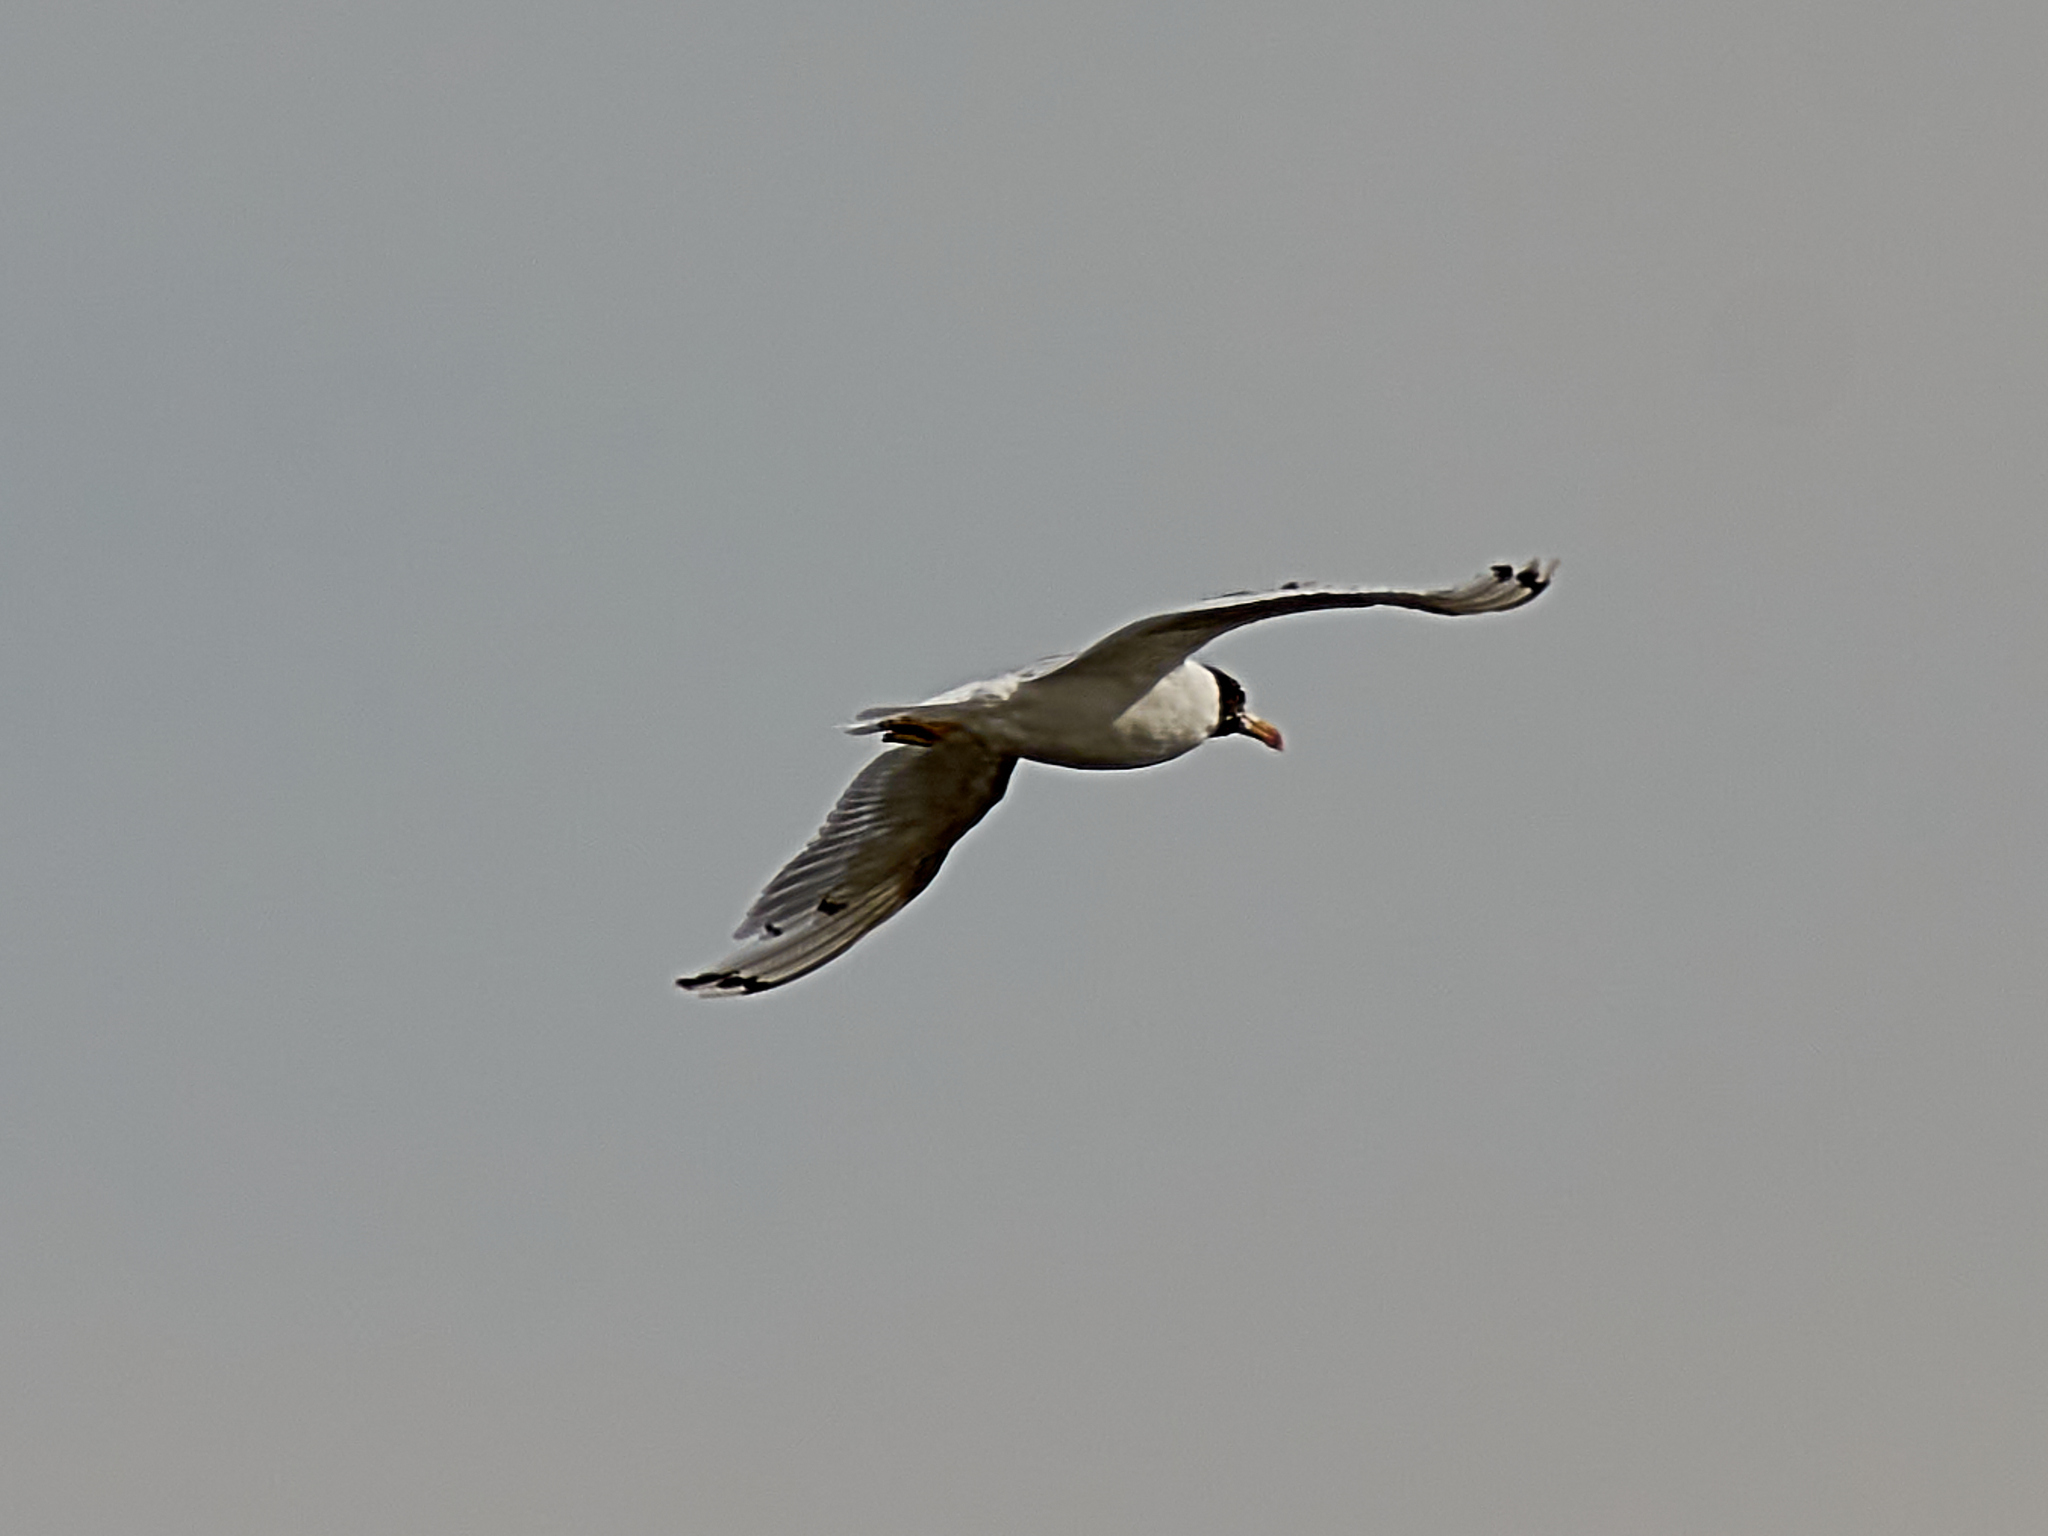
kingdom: Animalia
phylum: Chordata
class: Aves
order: Charadriiformes
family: Laridae
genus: Ichthyaetus
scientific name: Ichthyaetus ichthyaetus
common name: Pallas's gull
